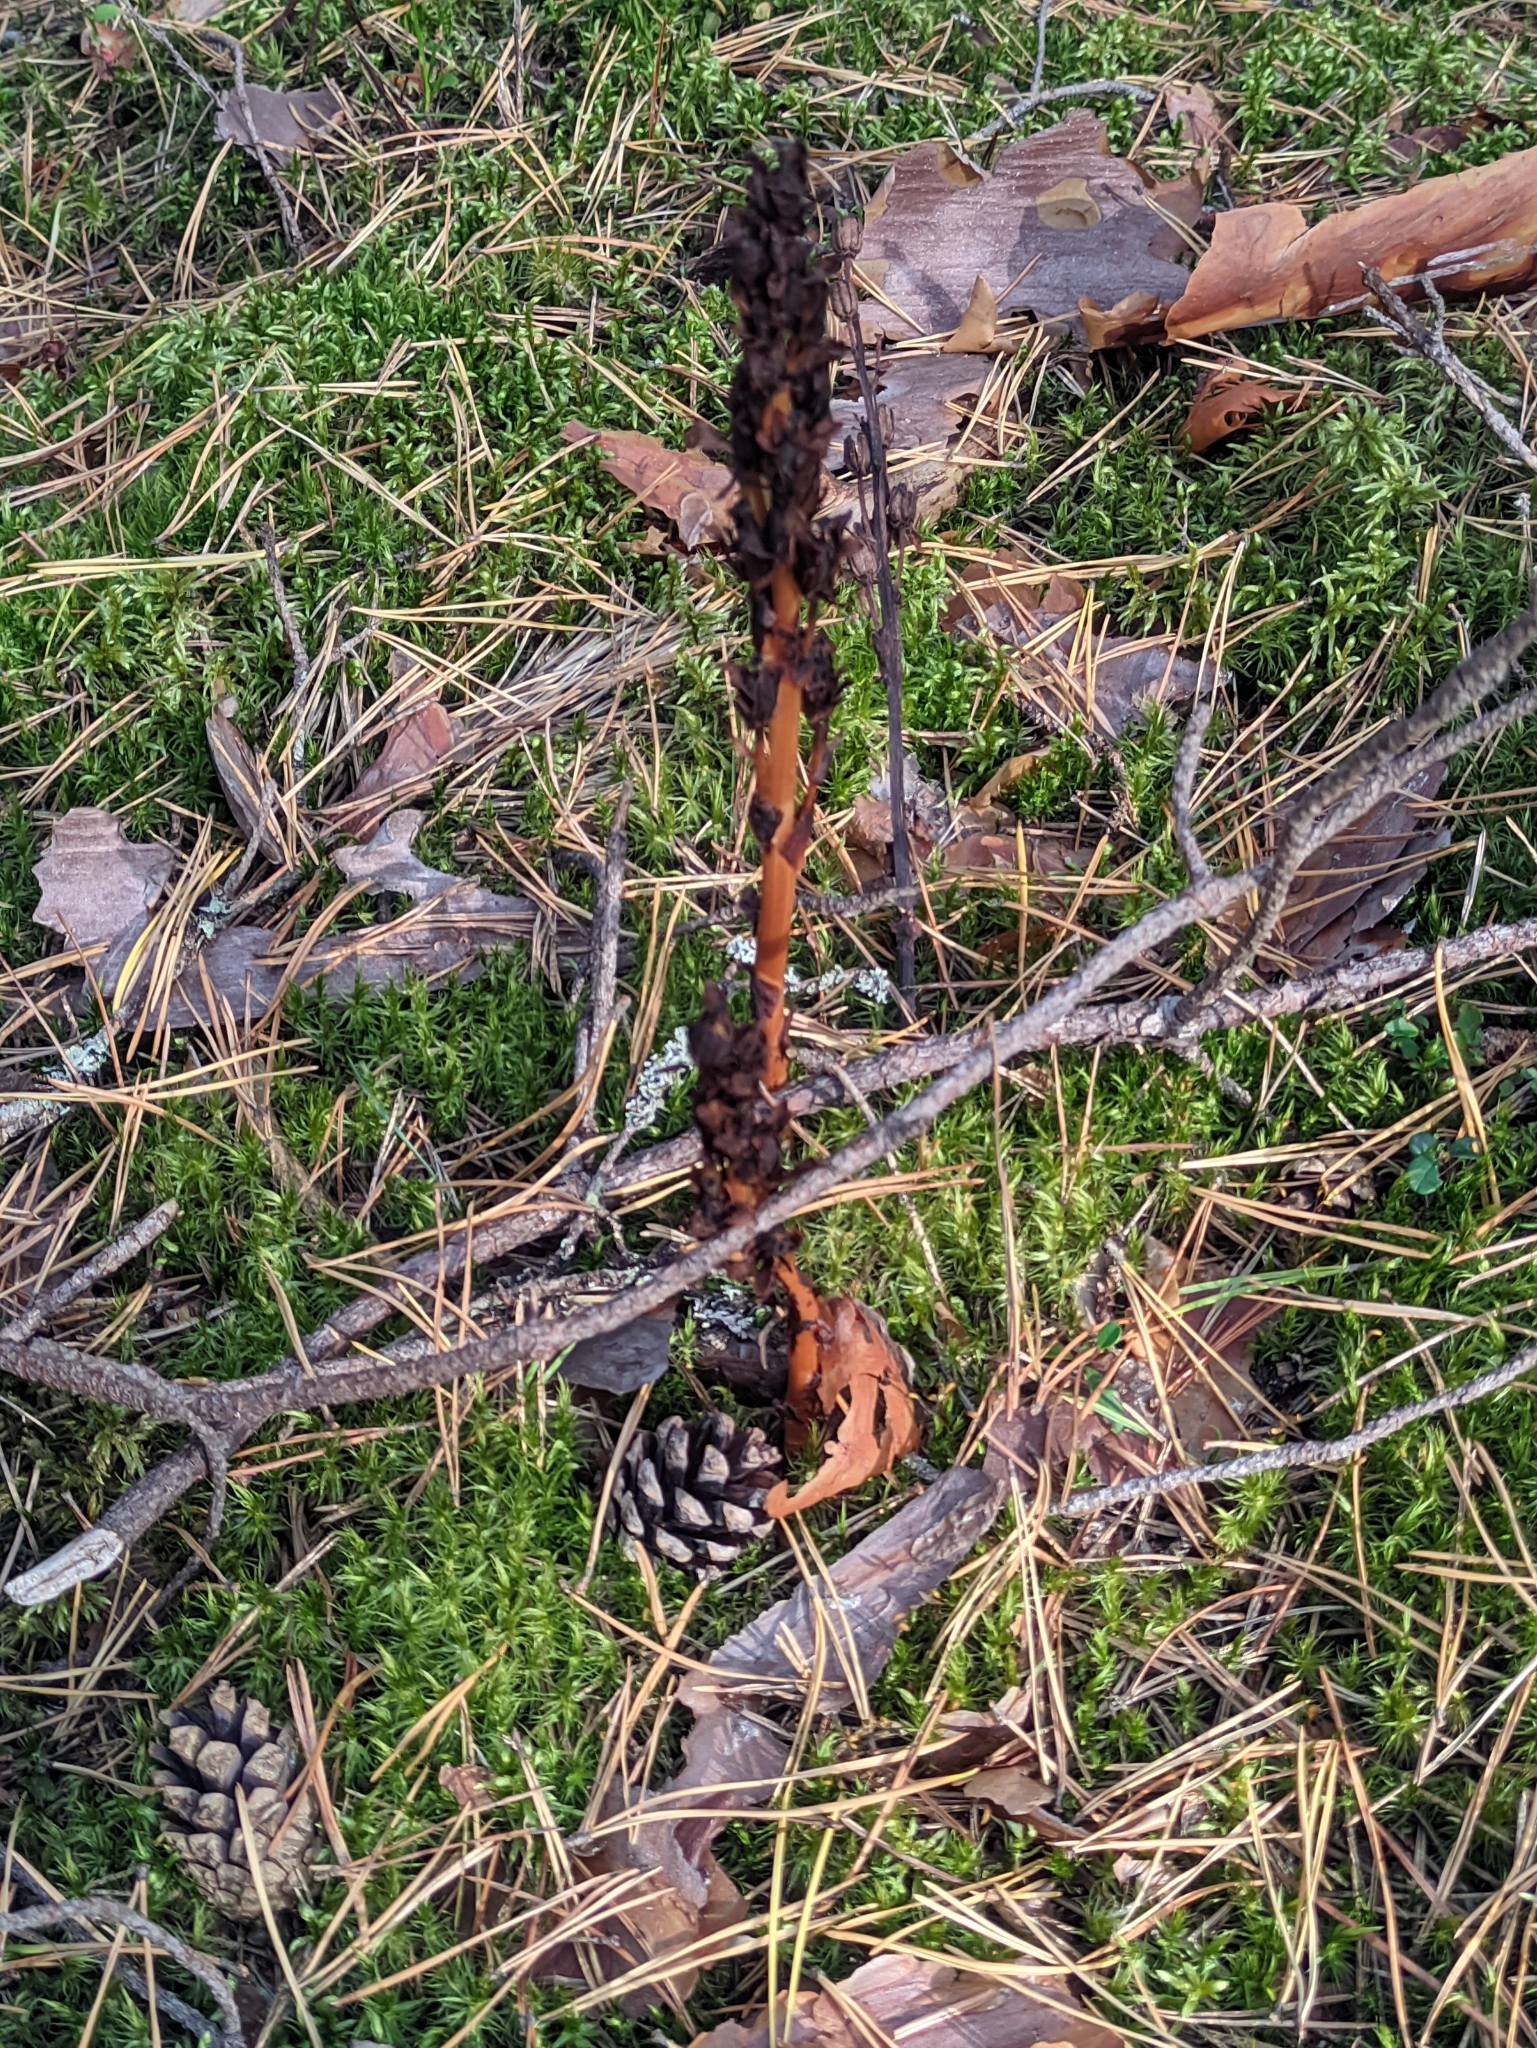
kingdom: Plantae
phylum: Tracheophyta
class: Magnoliopsida
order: Ericales
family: Ericaceae
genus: Hypopitys
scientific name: Hypopitys monotropa
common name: Yellow bird's-nest
